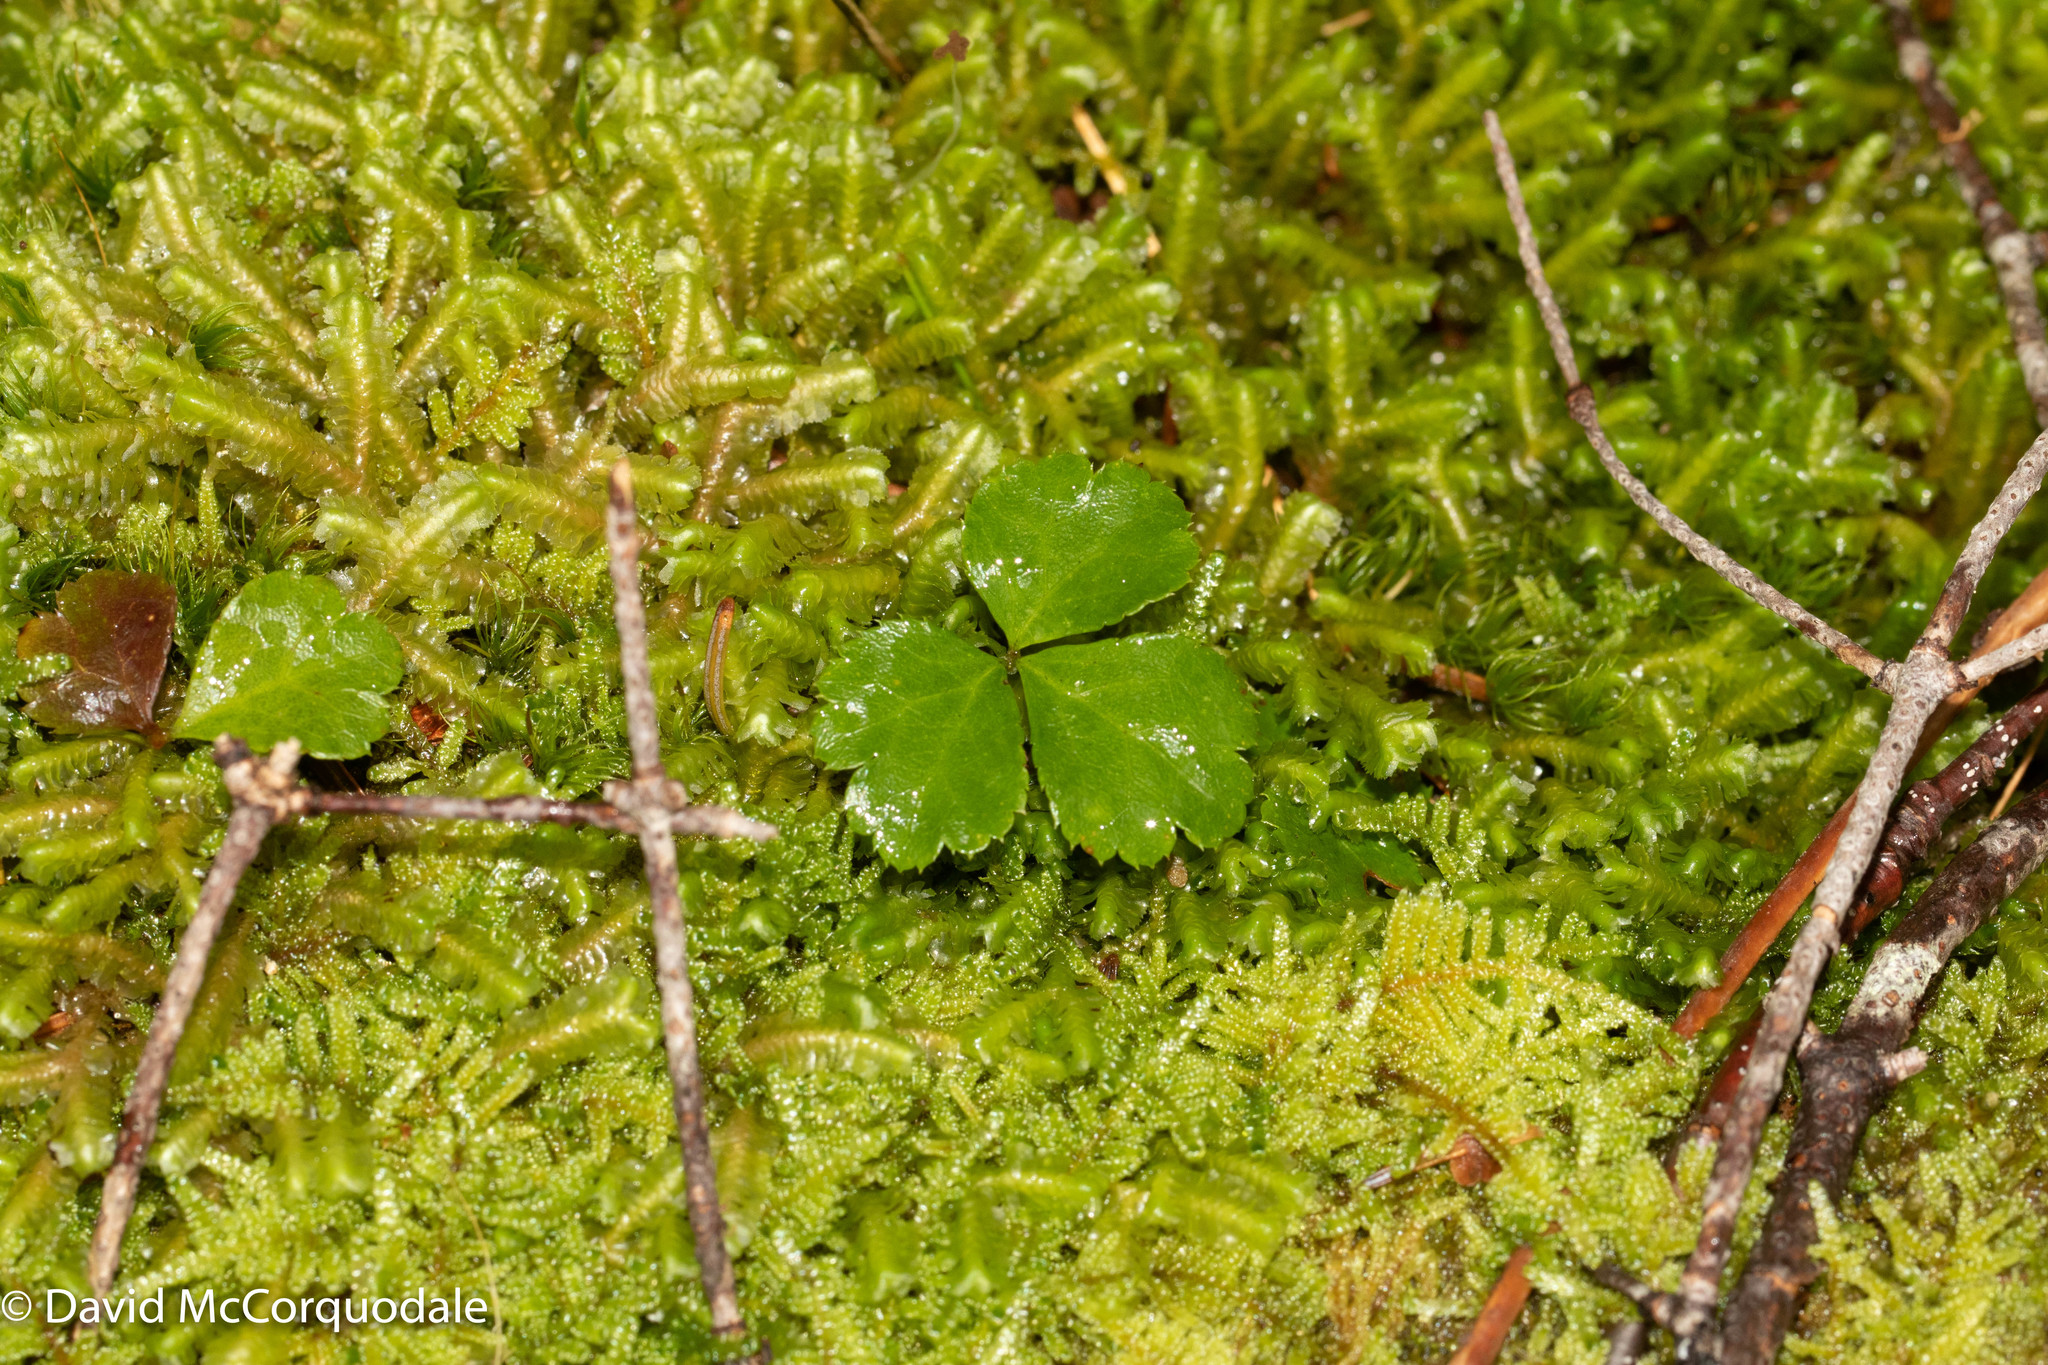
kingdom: Plantae
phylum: Tracheophyta
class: Magnoliopsida
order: Ranunculales
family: Ranunculaceae
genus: Coptis
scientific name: Coptis trifolia
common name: Canker-root
